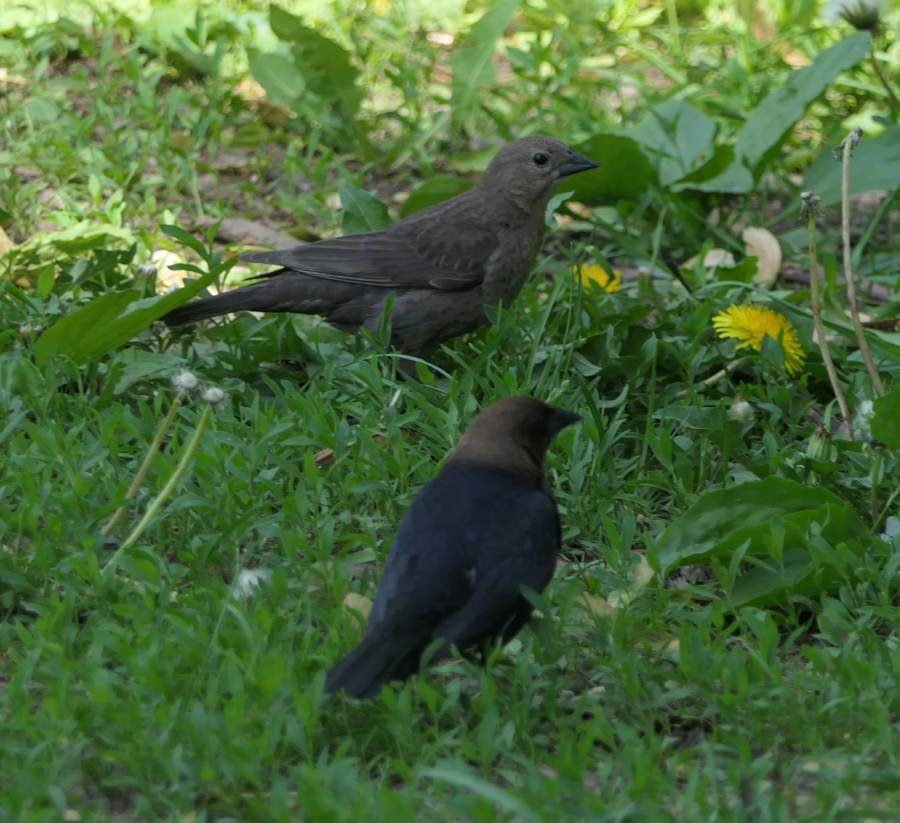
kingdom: Animalia
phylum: Chordata
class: Aves
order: Passeriformes
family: Icteridae
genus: Molothrus
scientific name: Molothrus ater
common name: Brown-headed cowbird
